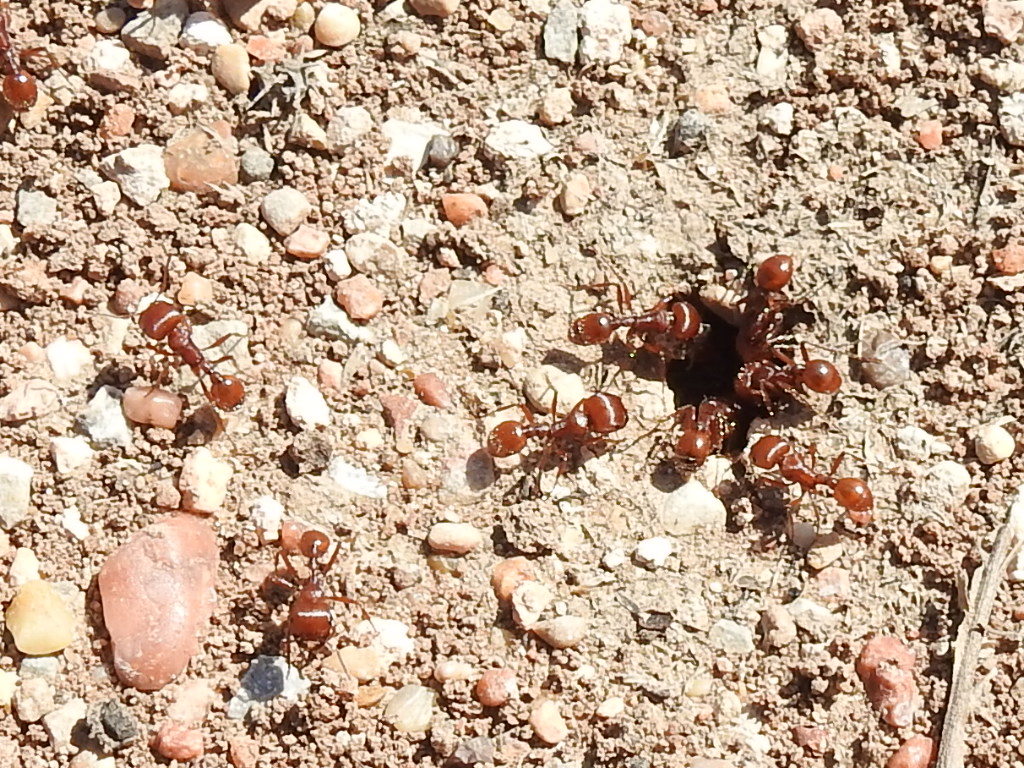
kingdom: Animalia
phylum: Arthropoda
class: Insecta
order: Hymenoptera
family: Formicidae
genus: Pogonomyrmex
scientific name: Pogonomyrmex barbatus
